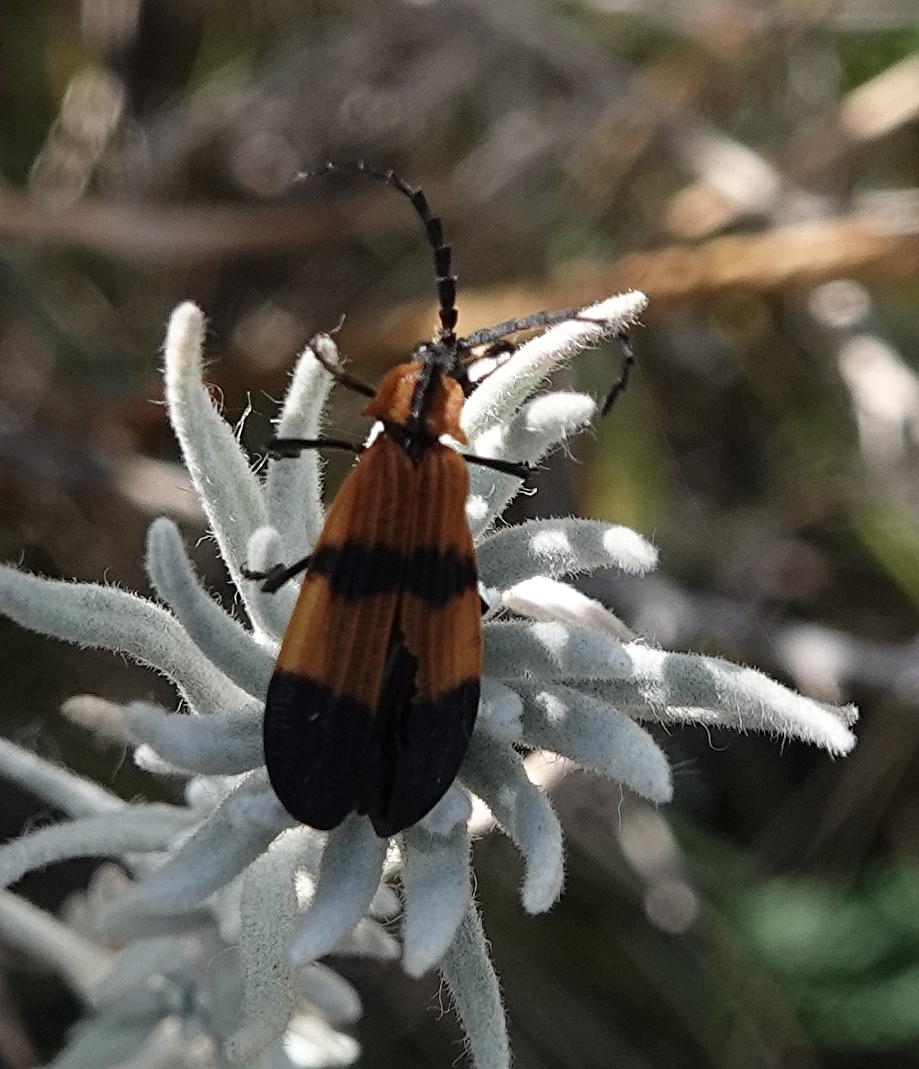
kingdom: Animalia
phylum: Arthropoda
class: Insecta
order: Coleoptera
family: Lycidae
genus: Calopteron
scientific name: Calopteron reticulatum
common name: Banded net-winged beetle
